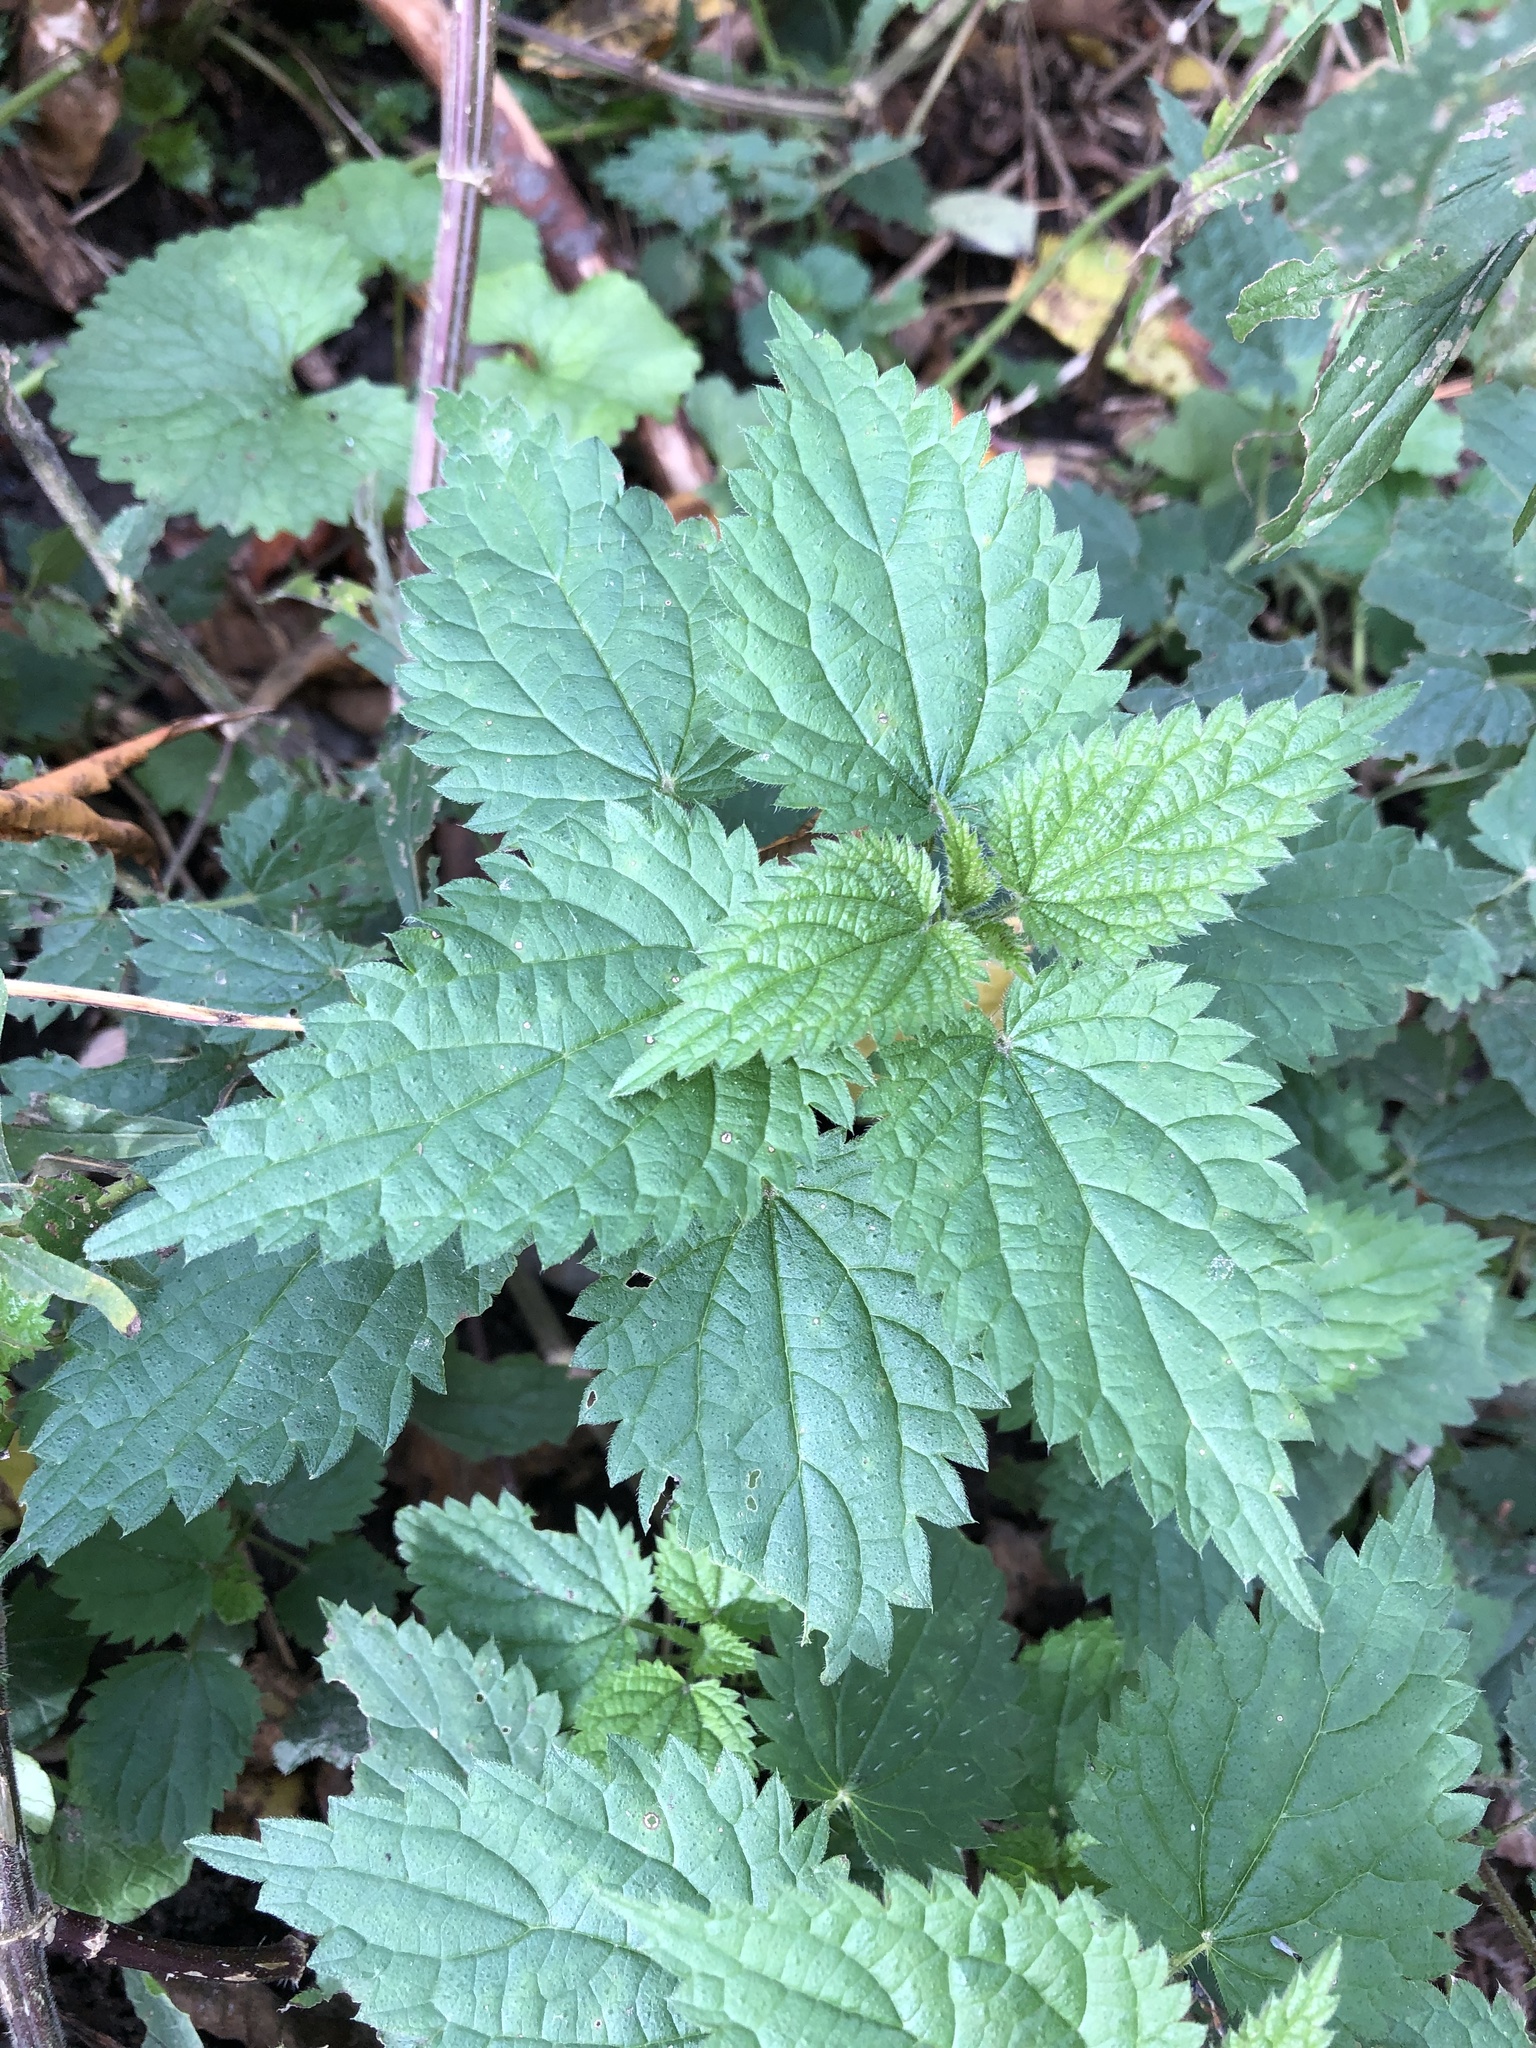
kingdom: Plantae
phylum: Tracheophyta
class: Magnoliopsida
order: Rosales
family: Urticaceae
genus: Urtica
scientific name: Urtica dioica
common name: Common nettle
